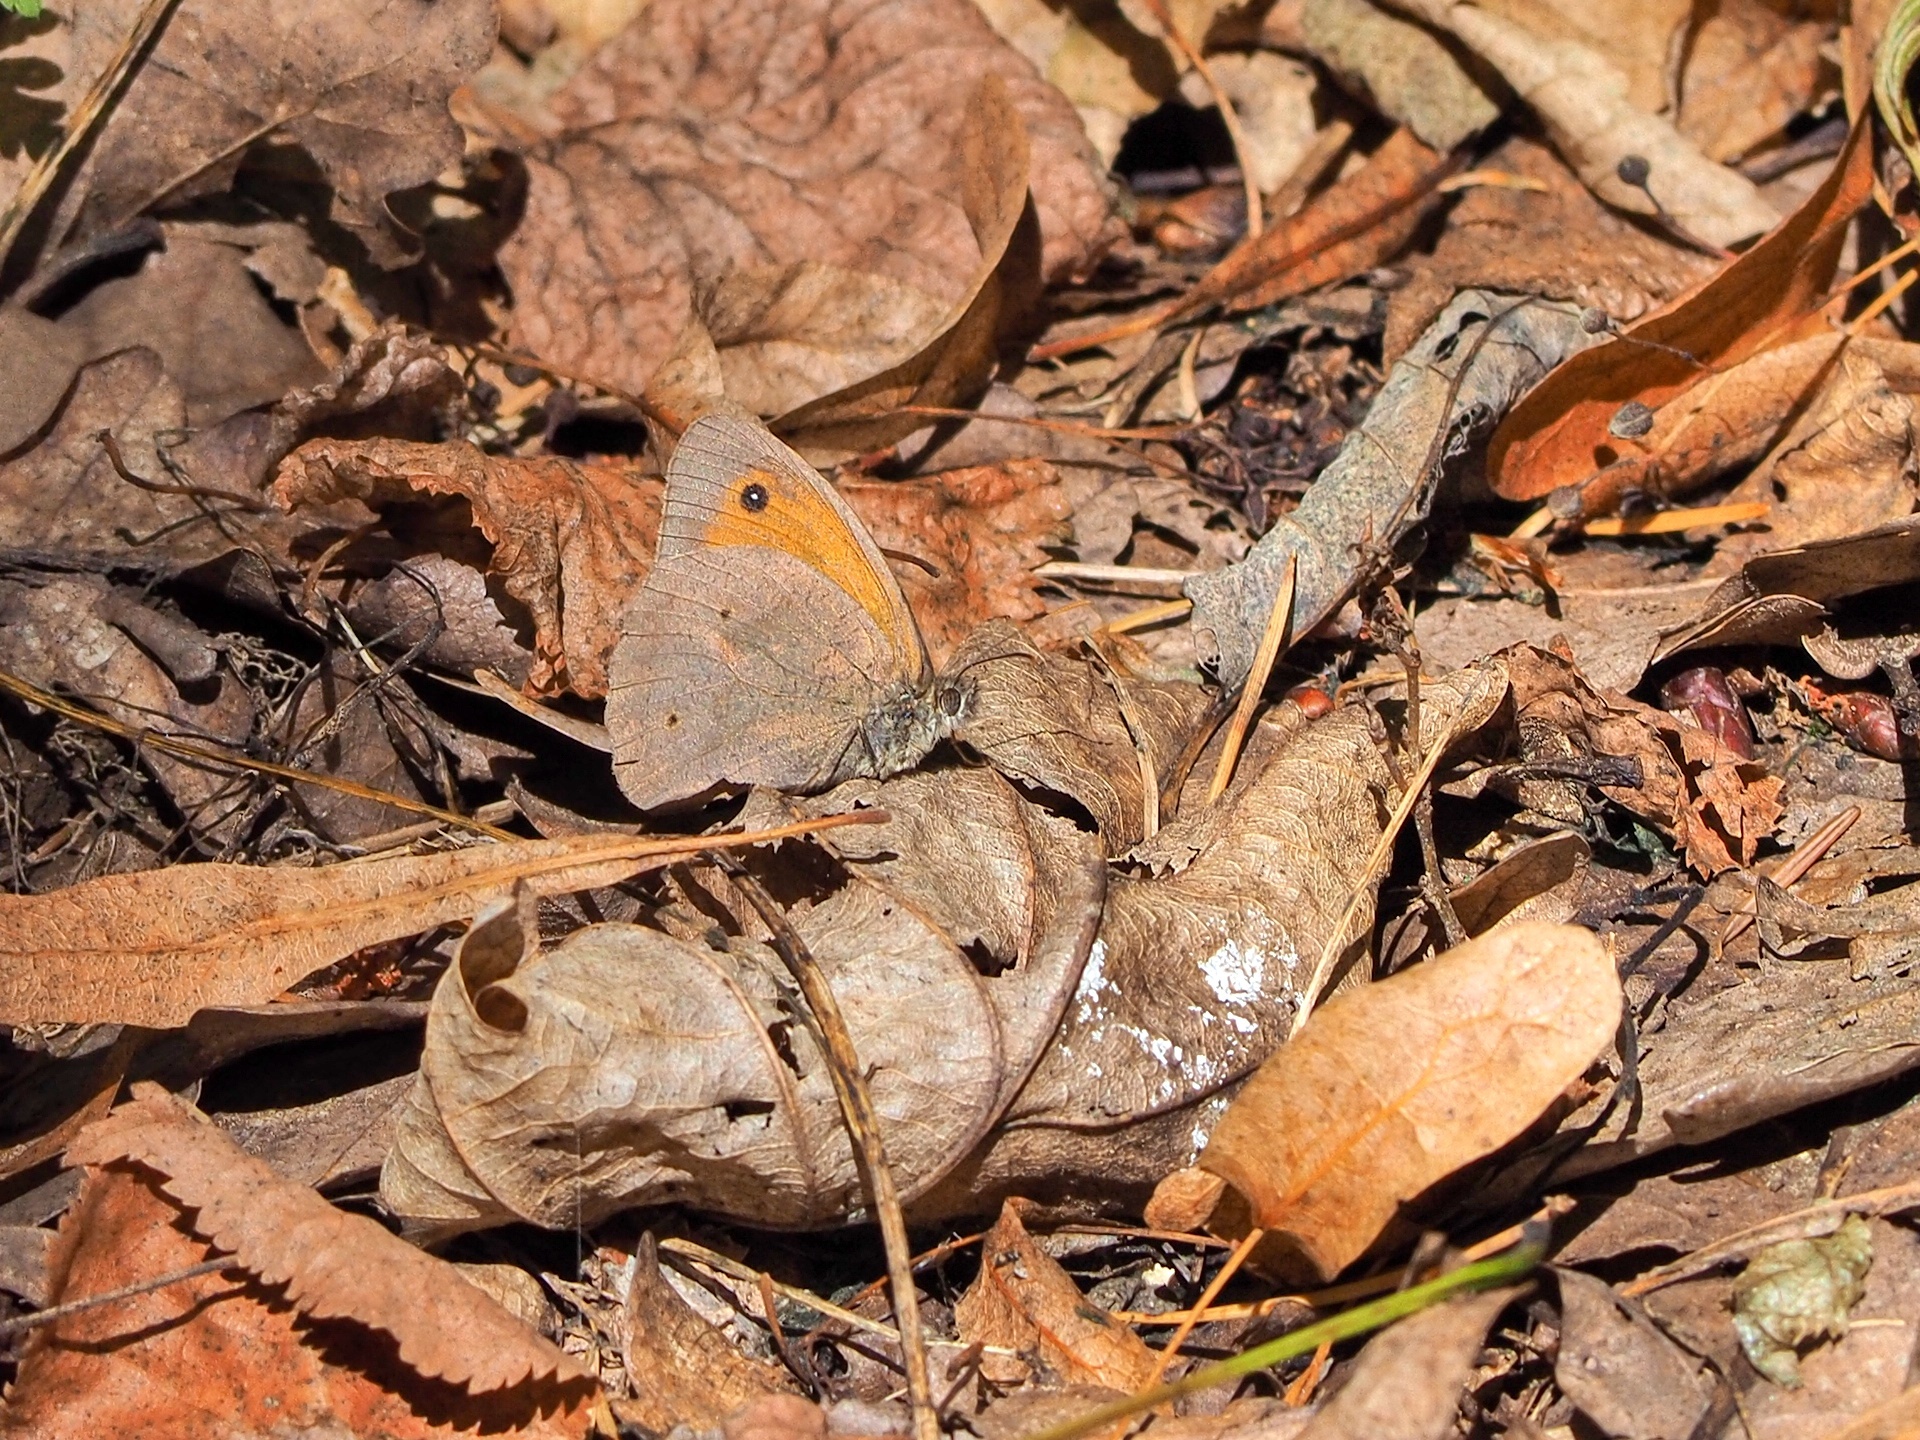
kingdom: Animalia
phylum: Arthropoda
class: Insecta
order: Lepidoptera
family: Nymphalidae
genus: Maniola
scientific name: Maniola jurtina
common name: Meadow brown
